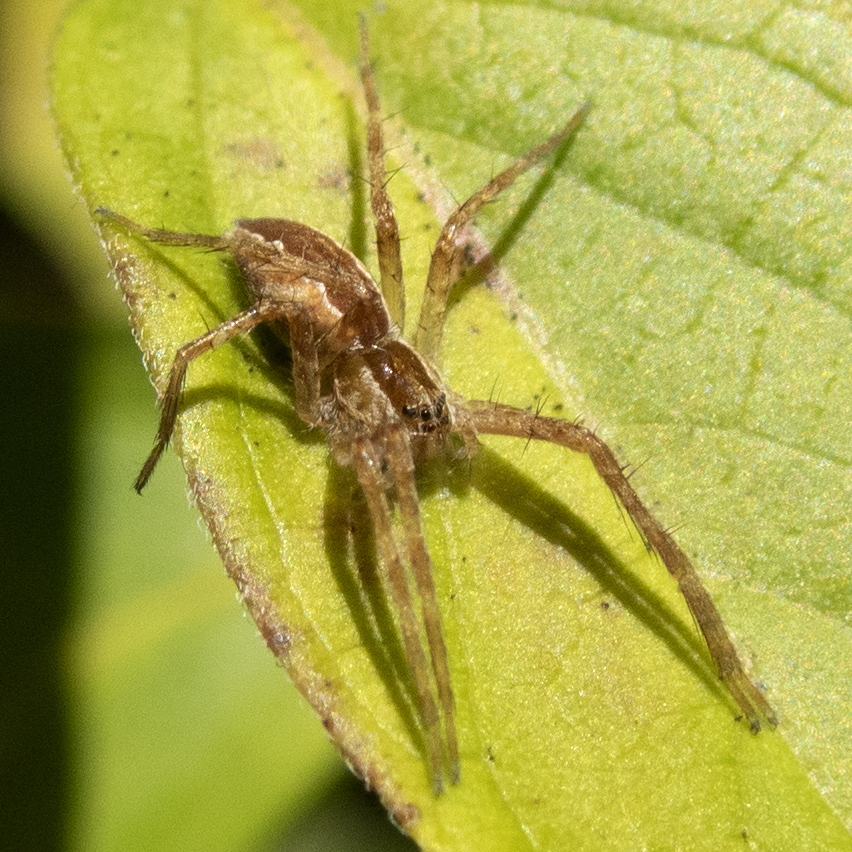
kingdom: Animalia
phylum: Arthropoda
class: Arachnida
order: Araneae
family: Pisauridae
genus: Pisaurina
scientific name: Pisaurina mira
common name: American nursery web spider
